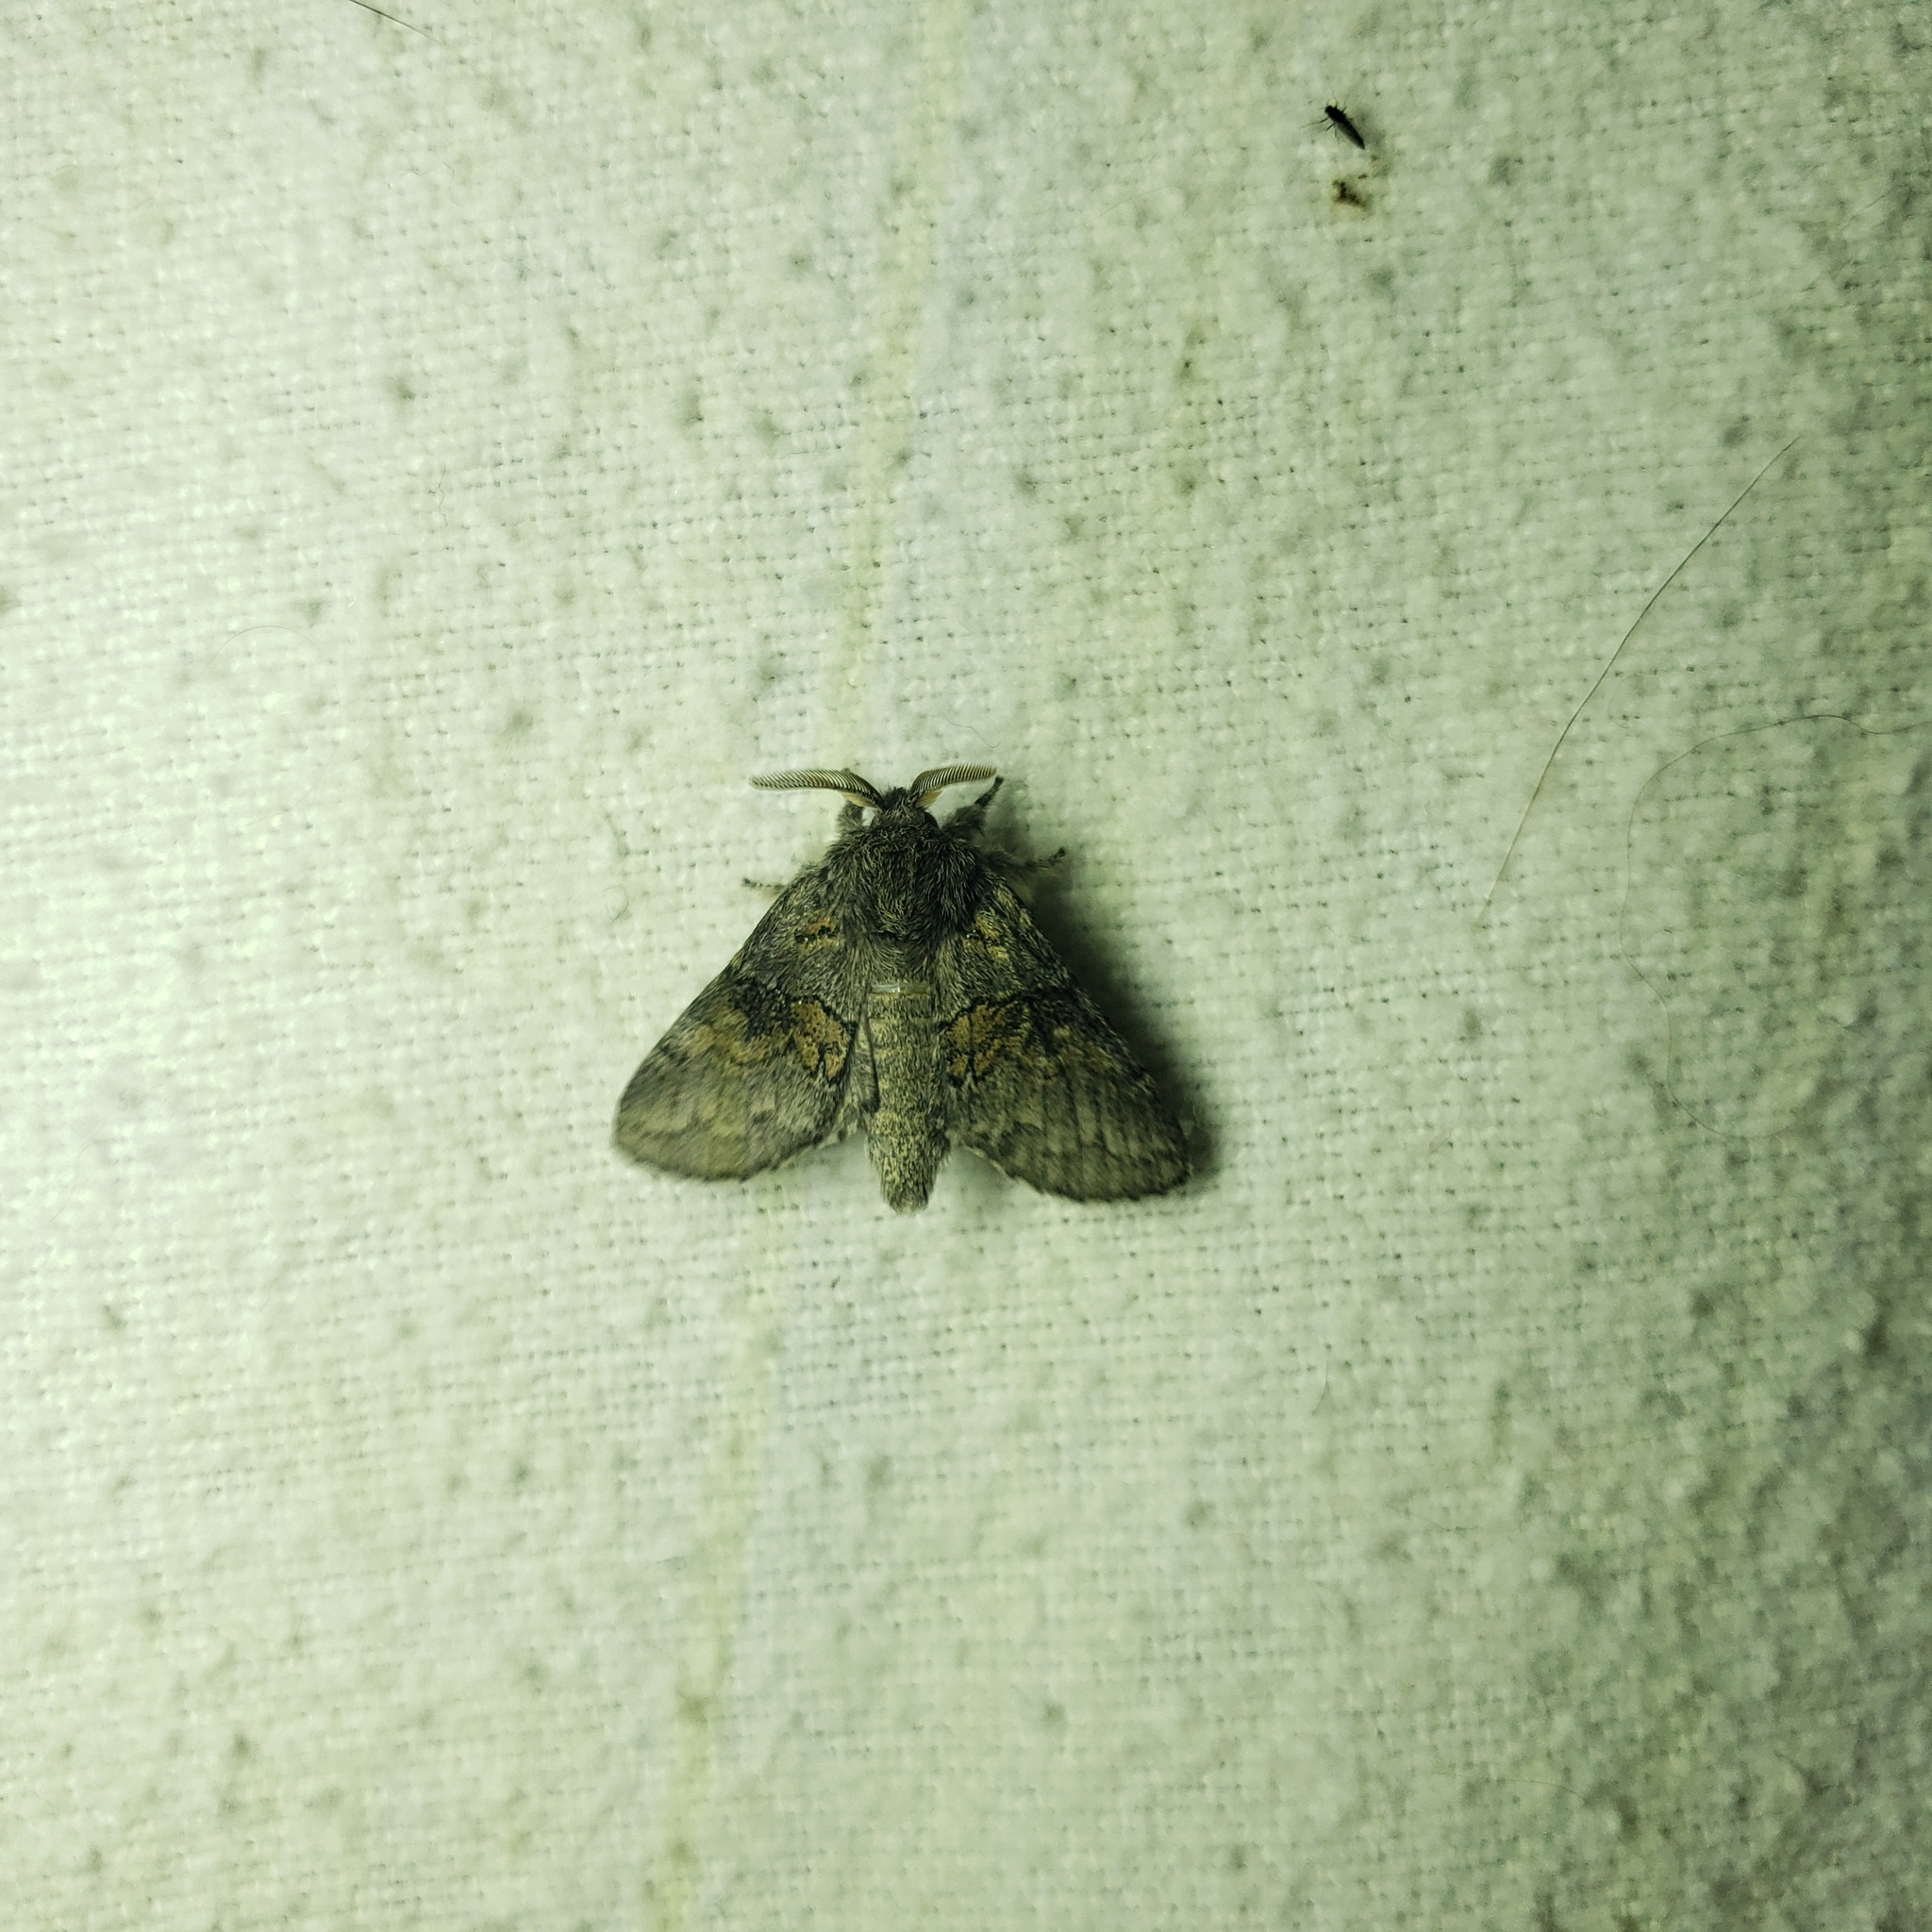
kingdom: Animalia
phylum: Arthropoda
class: Insecta
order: Lepidoptera
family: Notodontidae
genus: Gluphisia
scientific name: Gluphisia septentrionis
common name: Common gluphisia
